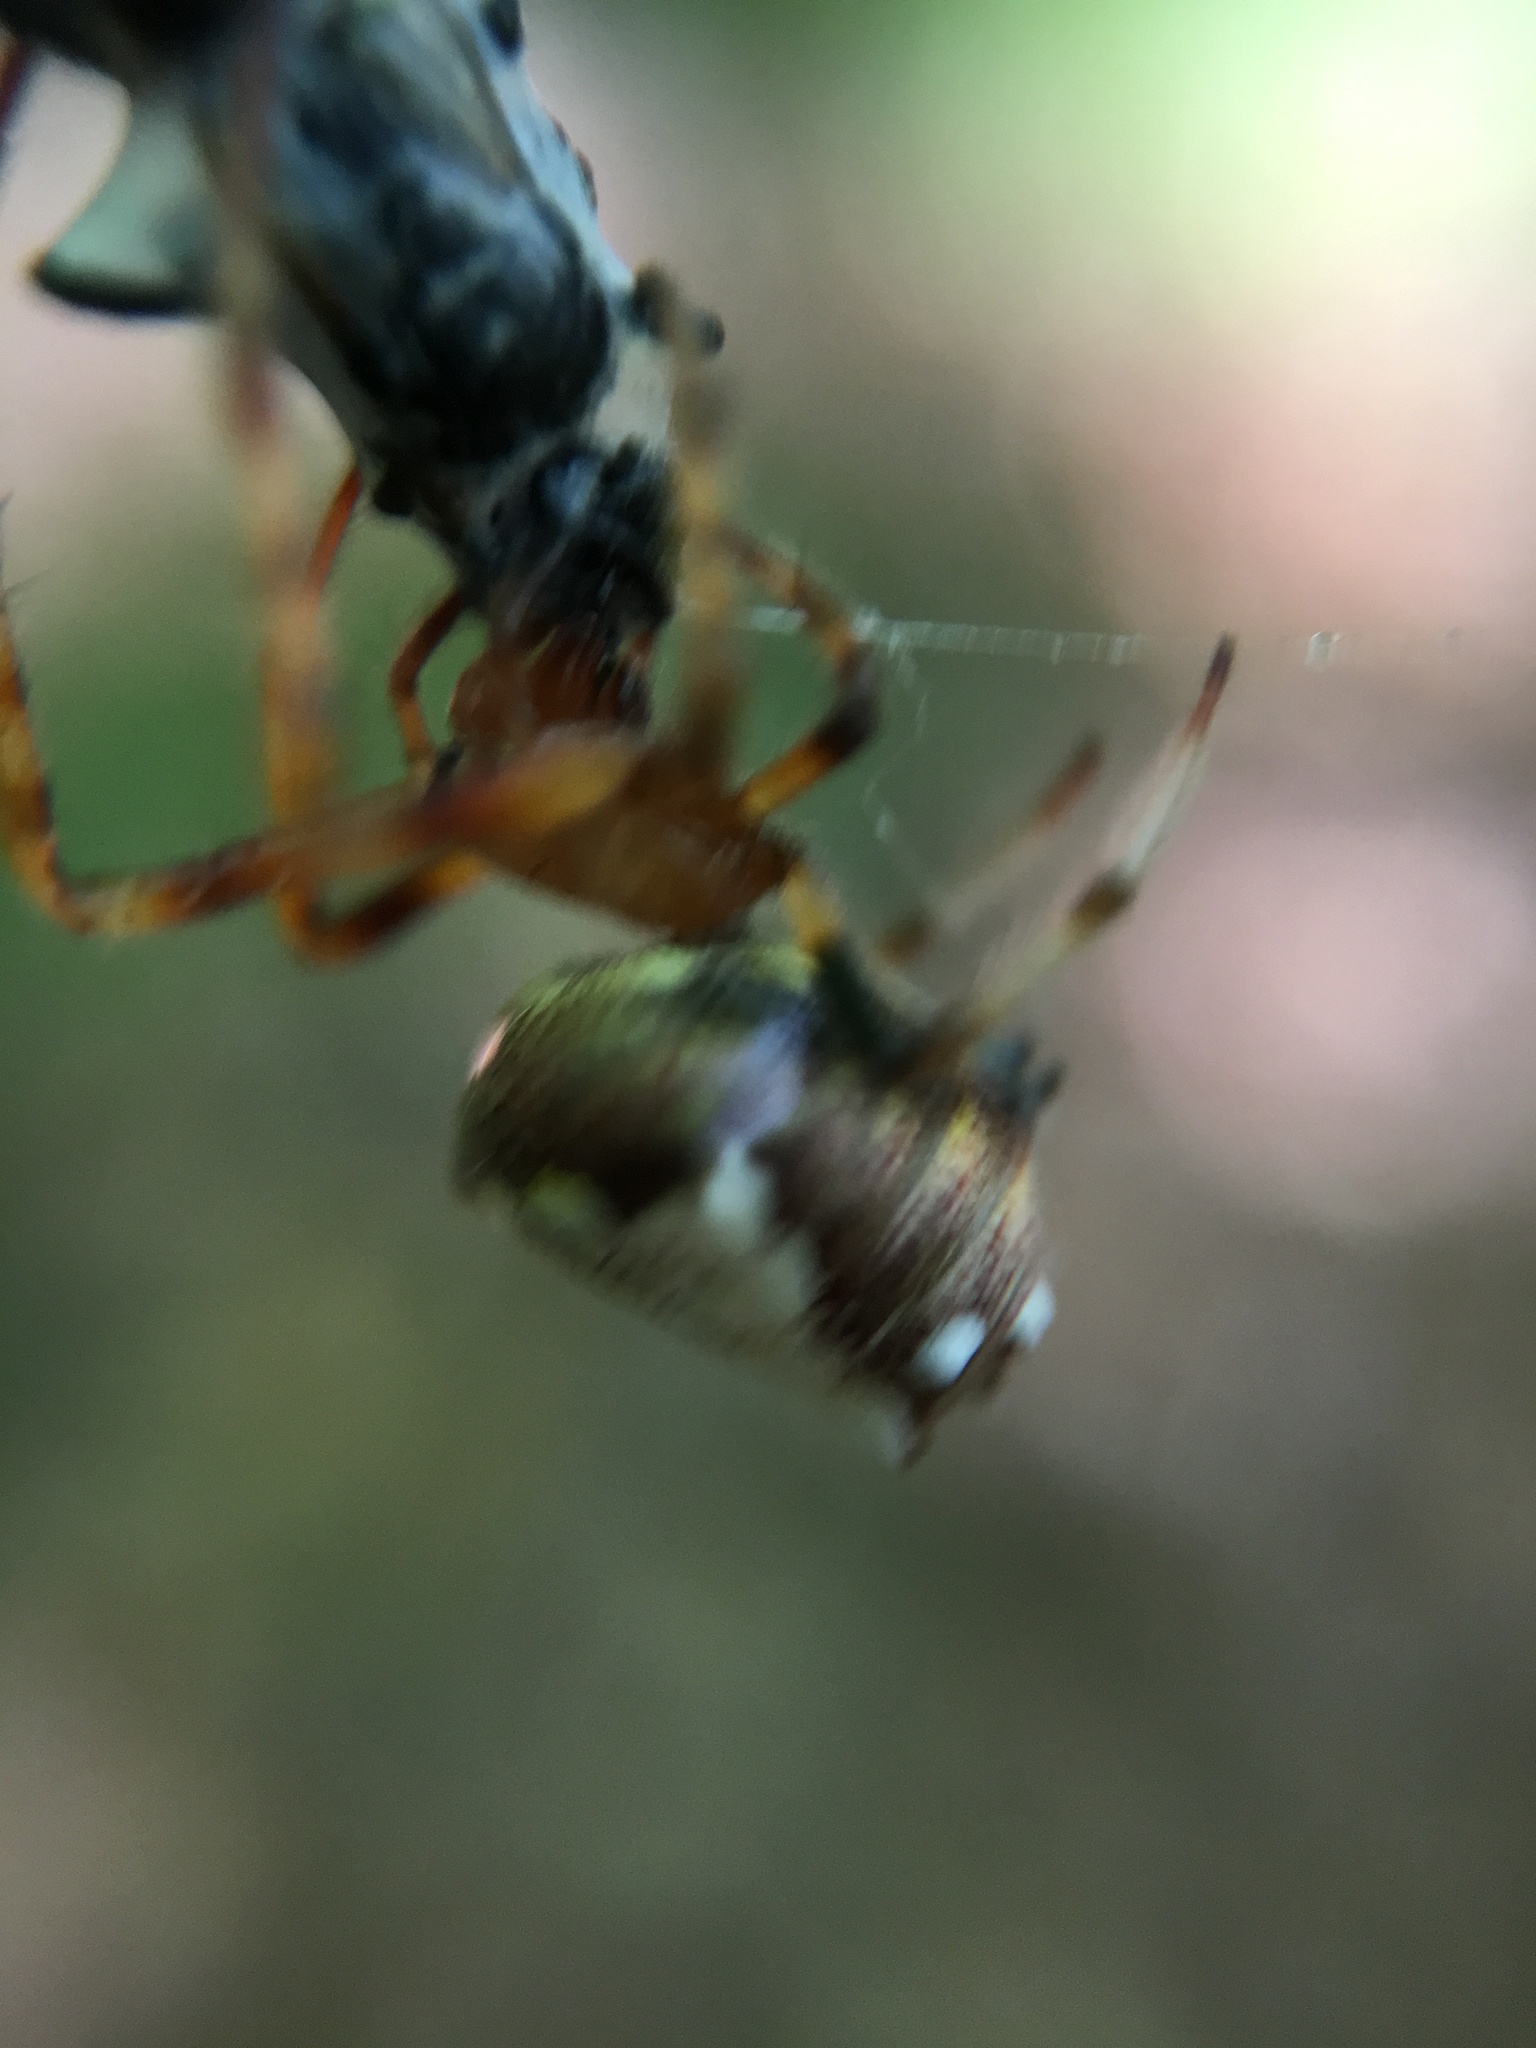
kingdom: Animalia
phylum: Arthropoda
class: Arachnida
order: Araneae
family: Araneidae
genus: Verrucosa
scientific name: Verrucosa arenata
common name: Orb weavers
